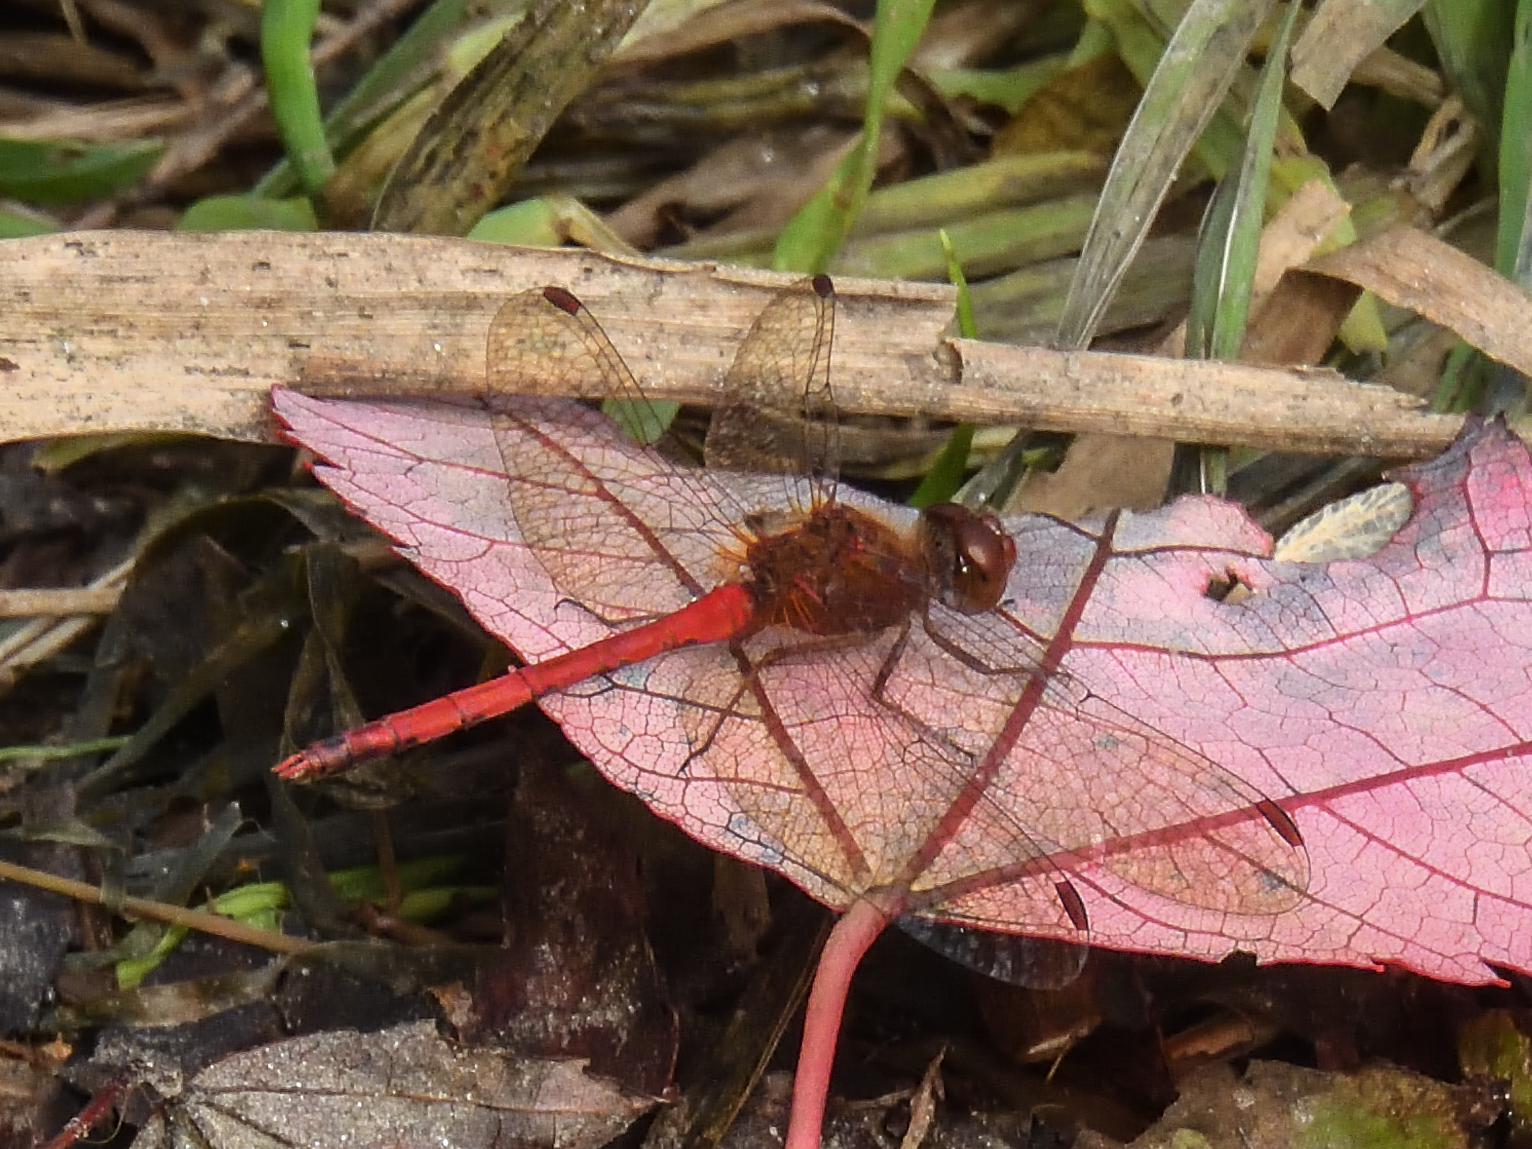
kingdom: Animalia
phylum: Arthropoda
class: Insecta
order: Odonata
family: Libellulidae
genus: Sympetrum
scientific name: Sympetrum vicinum
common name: Autumn meadowhawk
